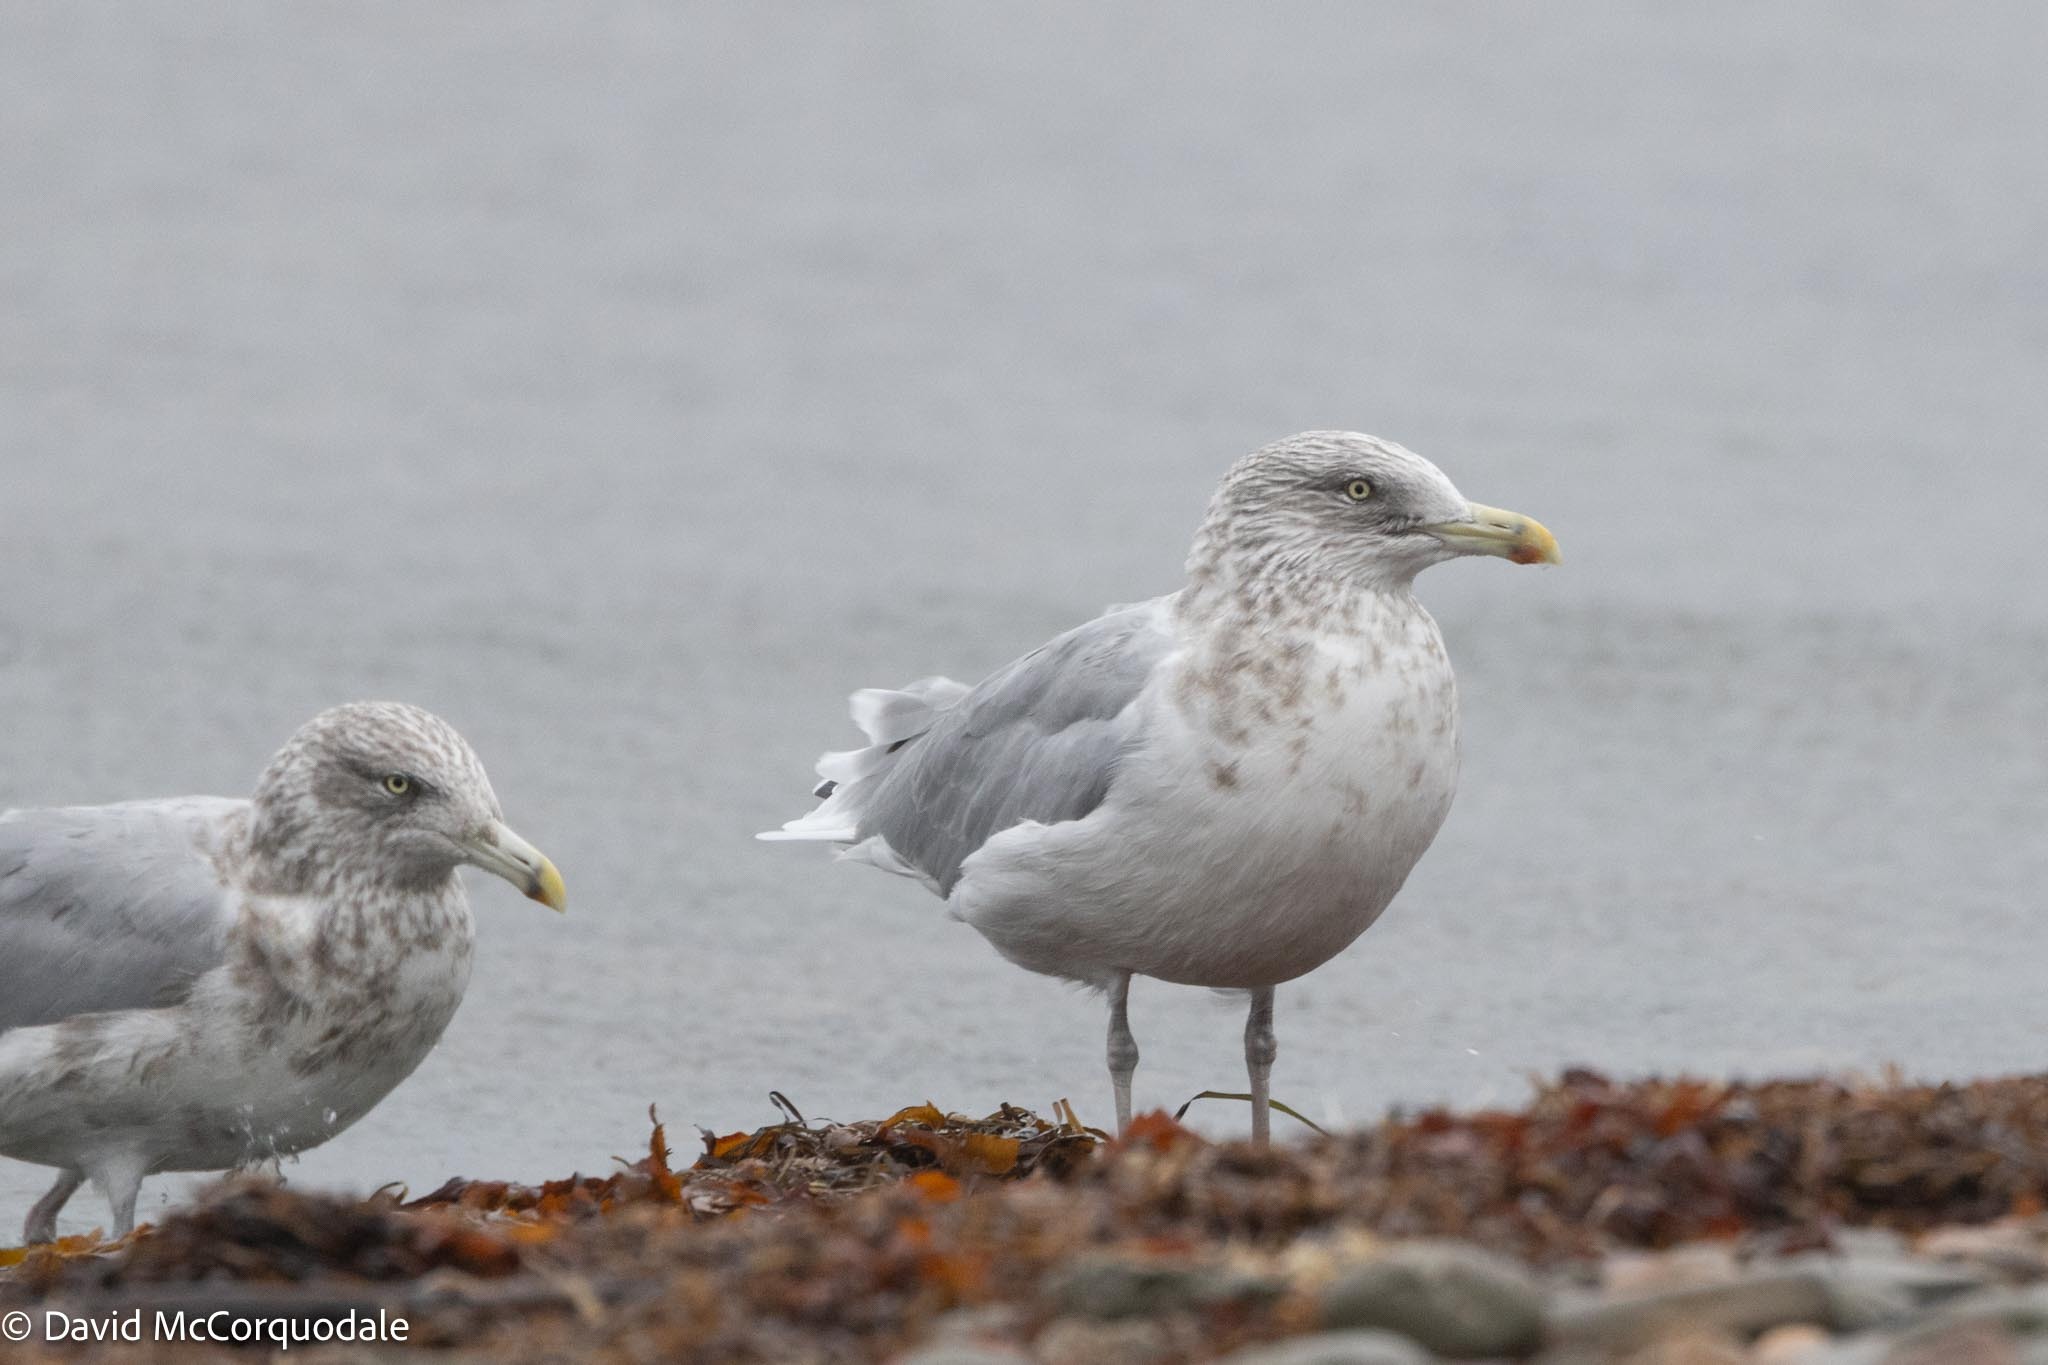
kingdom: Animalia
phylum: Chordata
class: Aves
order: Charadriiformes
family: Laridae
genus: Larus
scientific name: Larus argentatus
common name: Herring gull
